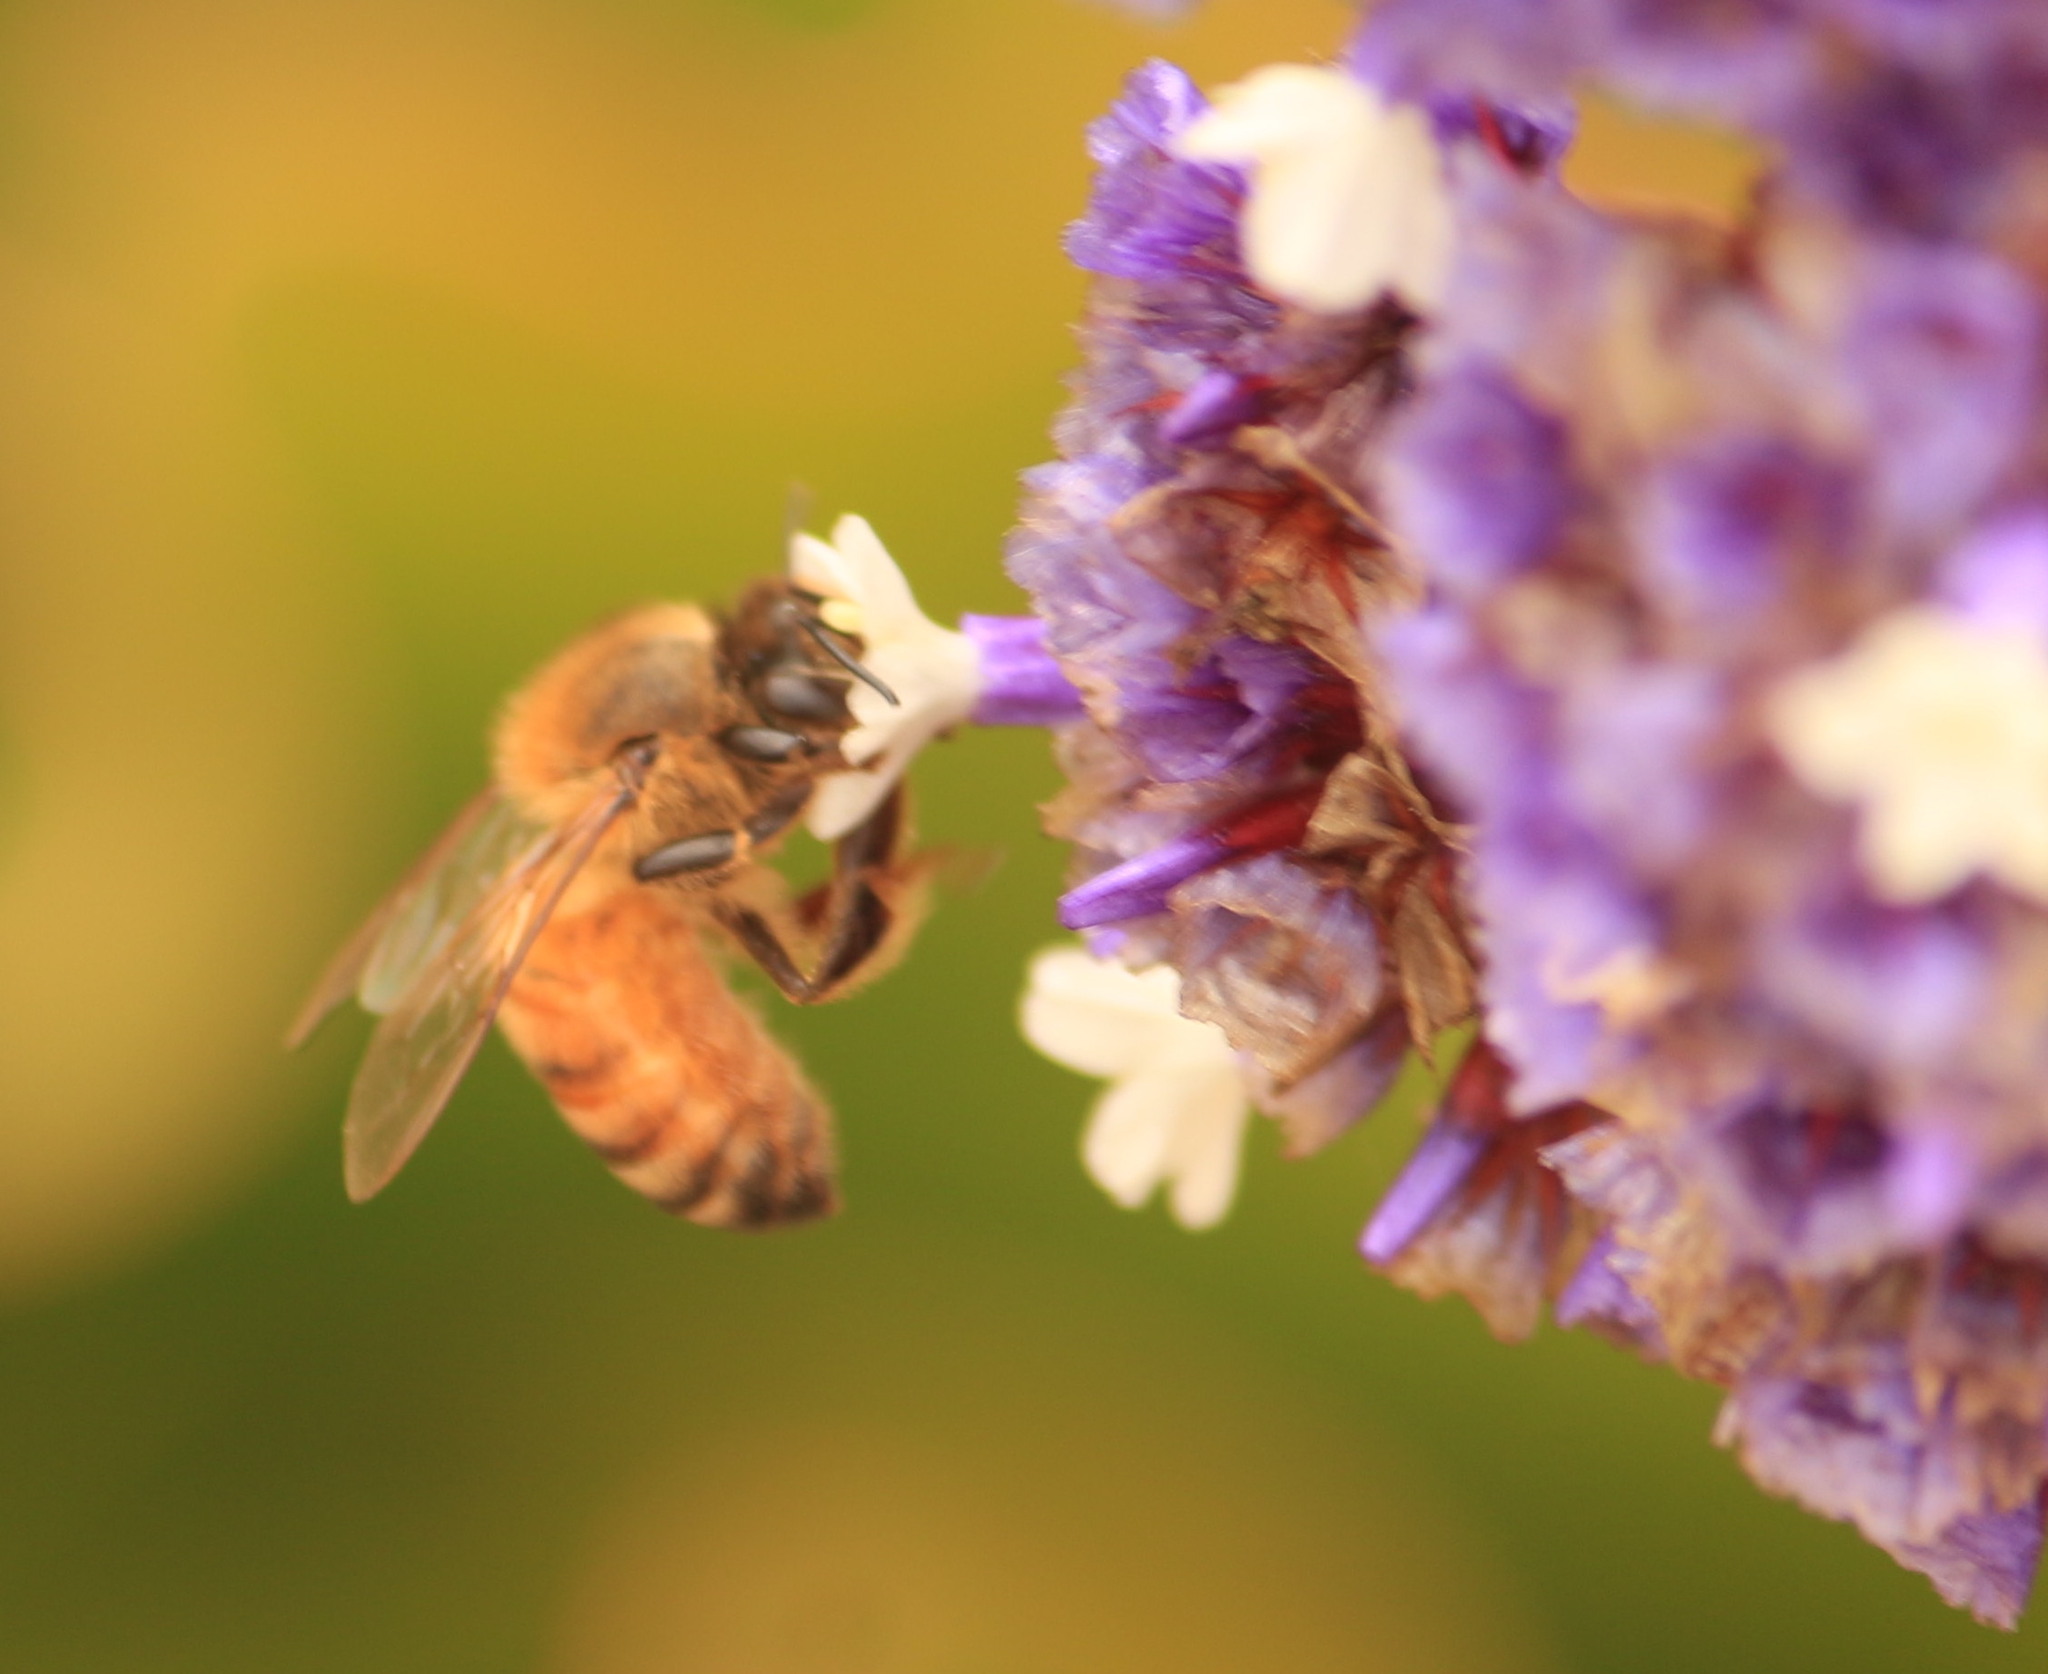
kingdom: Animalia
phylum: Arthropoda
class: Insecta
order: Hymenoptera
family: Apidae
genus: Apis
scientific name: Apis mellifera
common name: Honey bee
